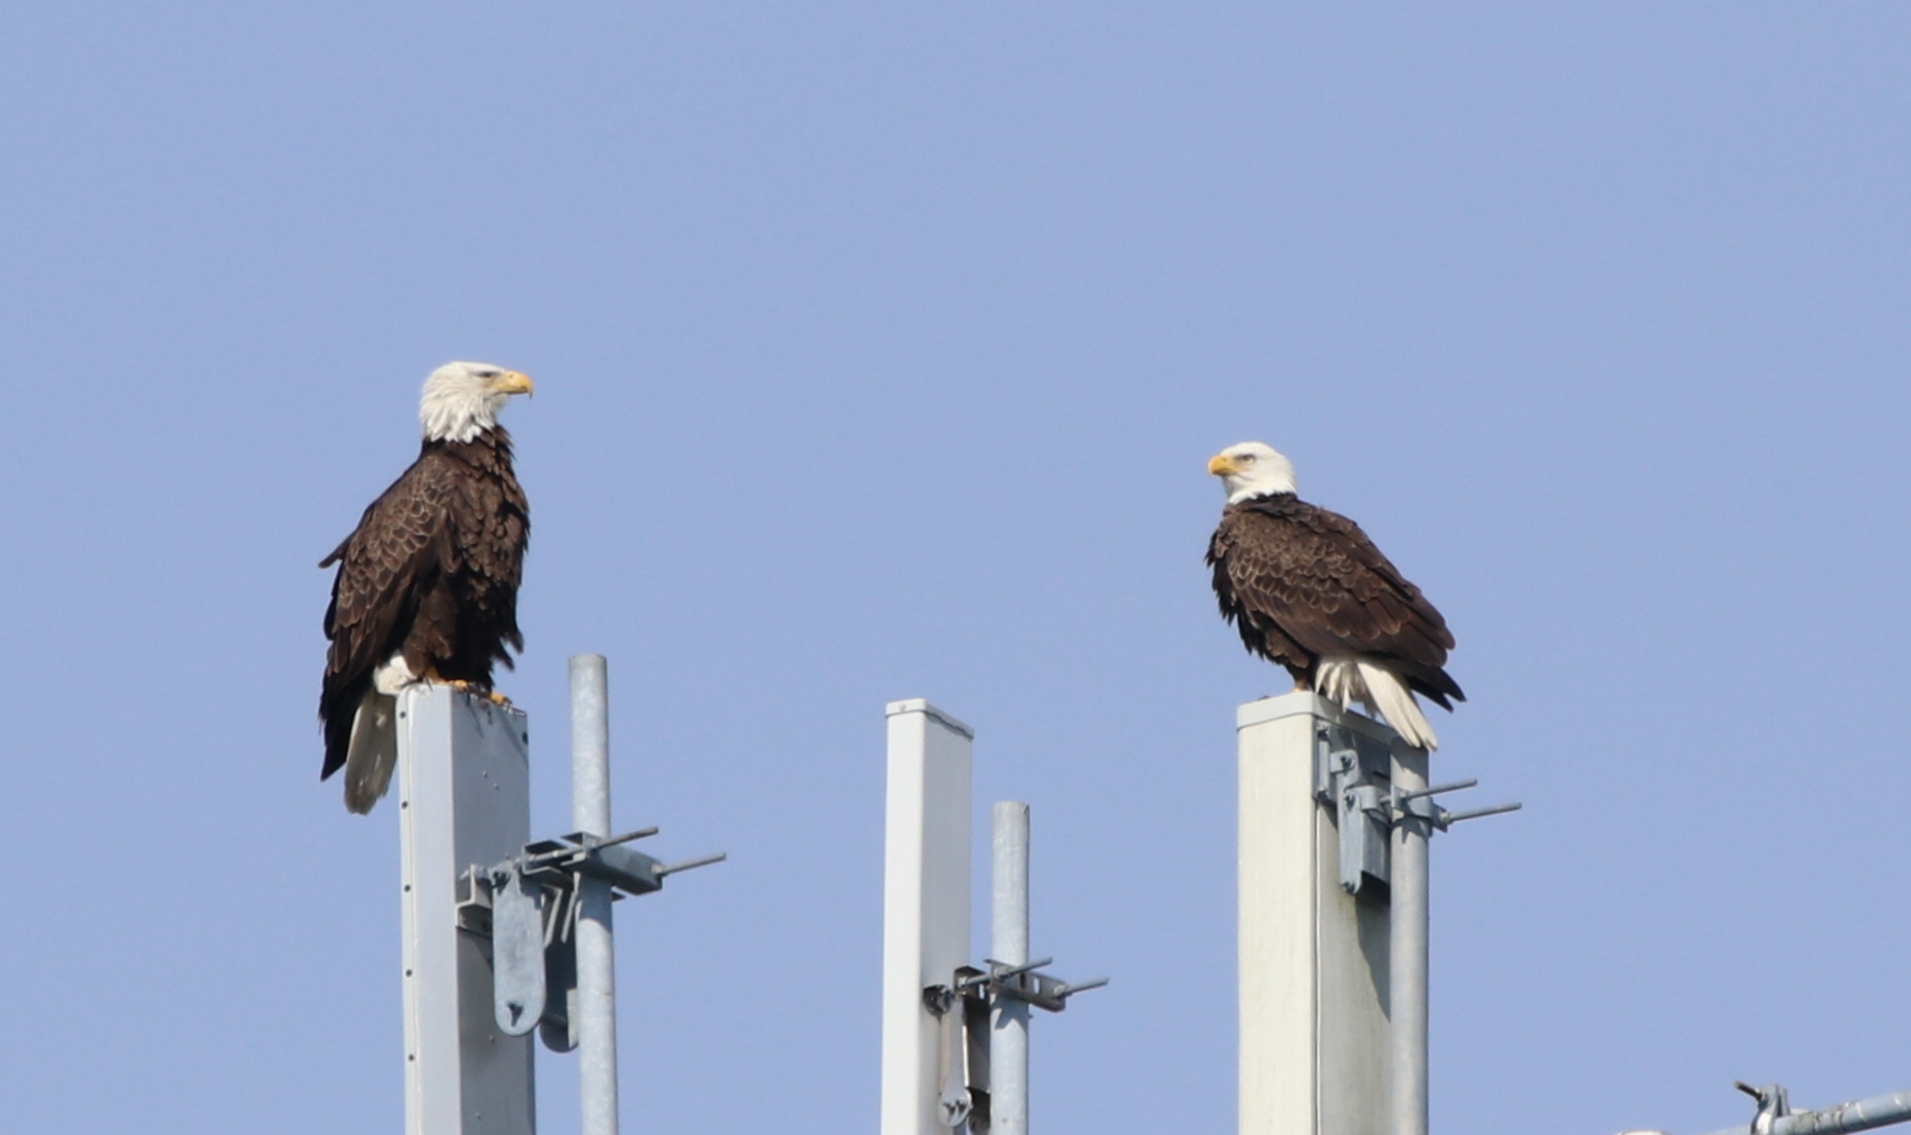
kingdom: Animalia
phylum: Chordata
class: Aves
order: Accipitriformes
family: Accipitridae
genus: Haliaeetus
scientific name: Haliaeetus leucocephalus
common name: Bald eagle
